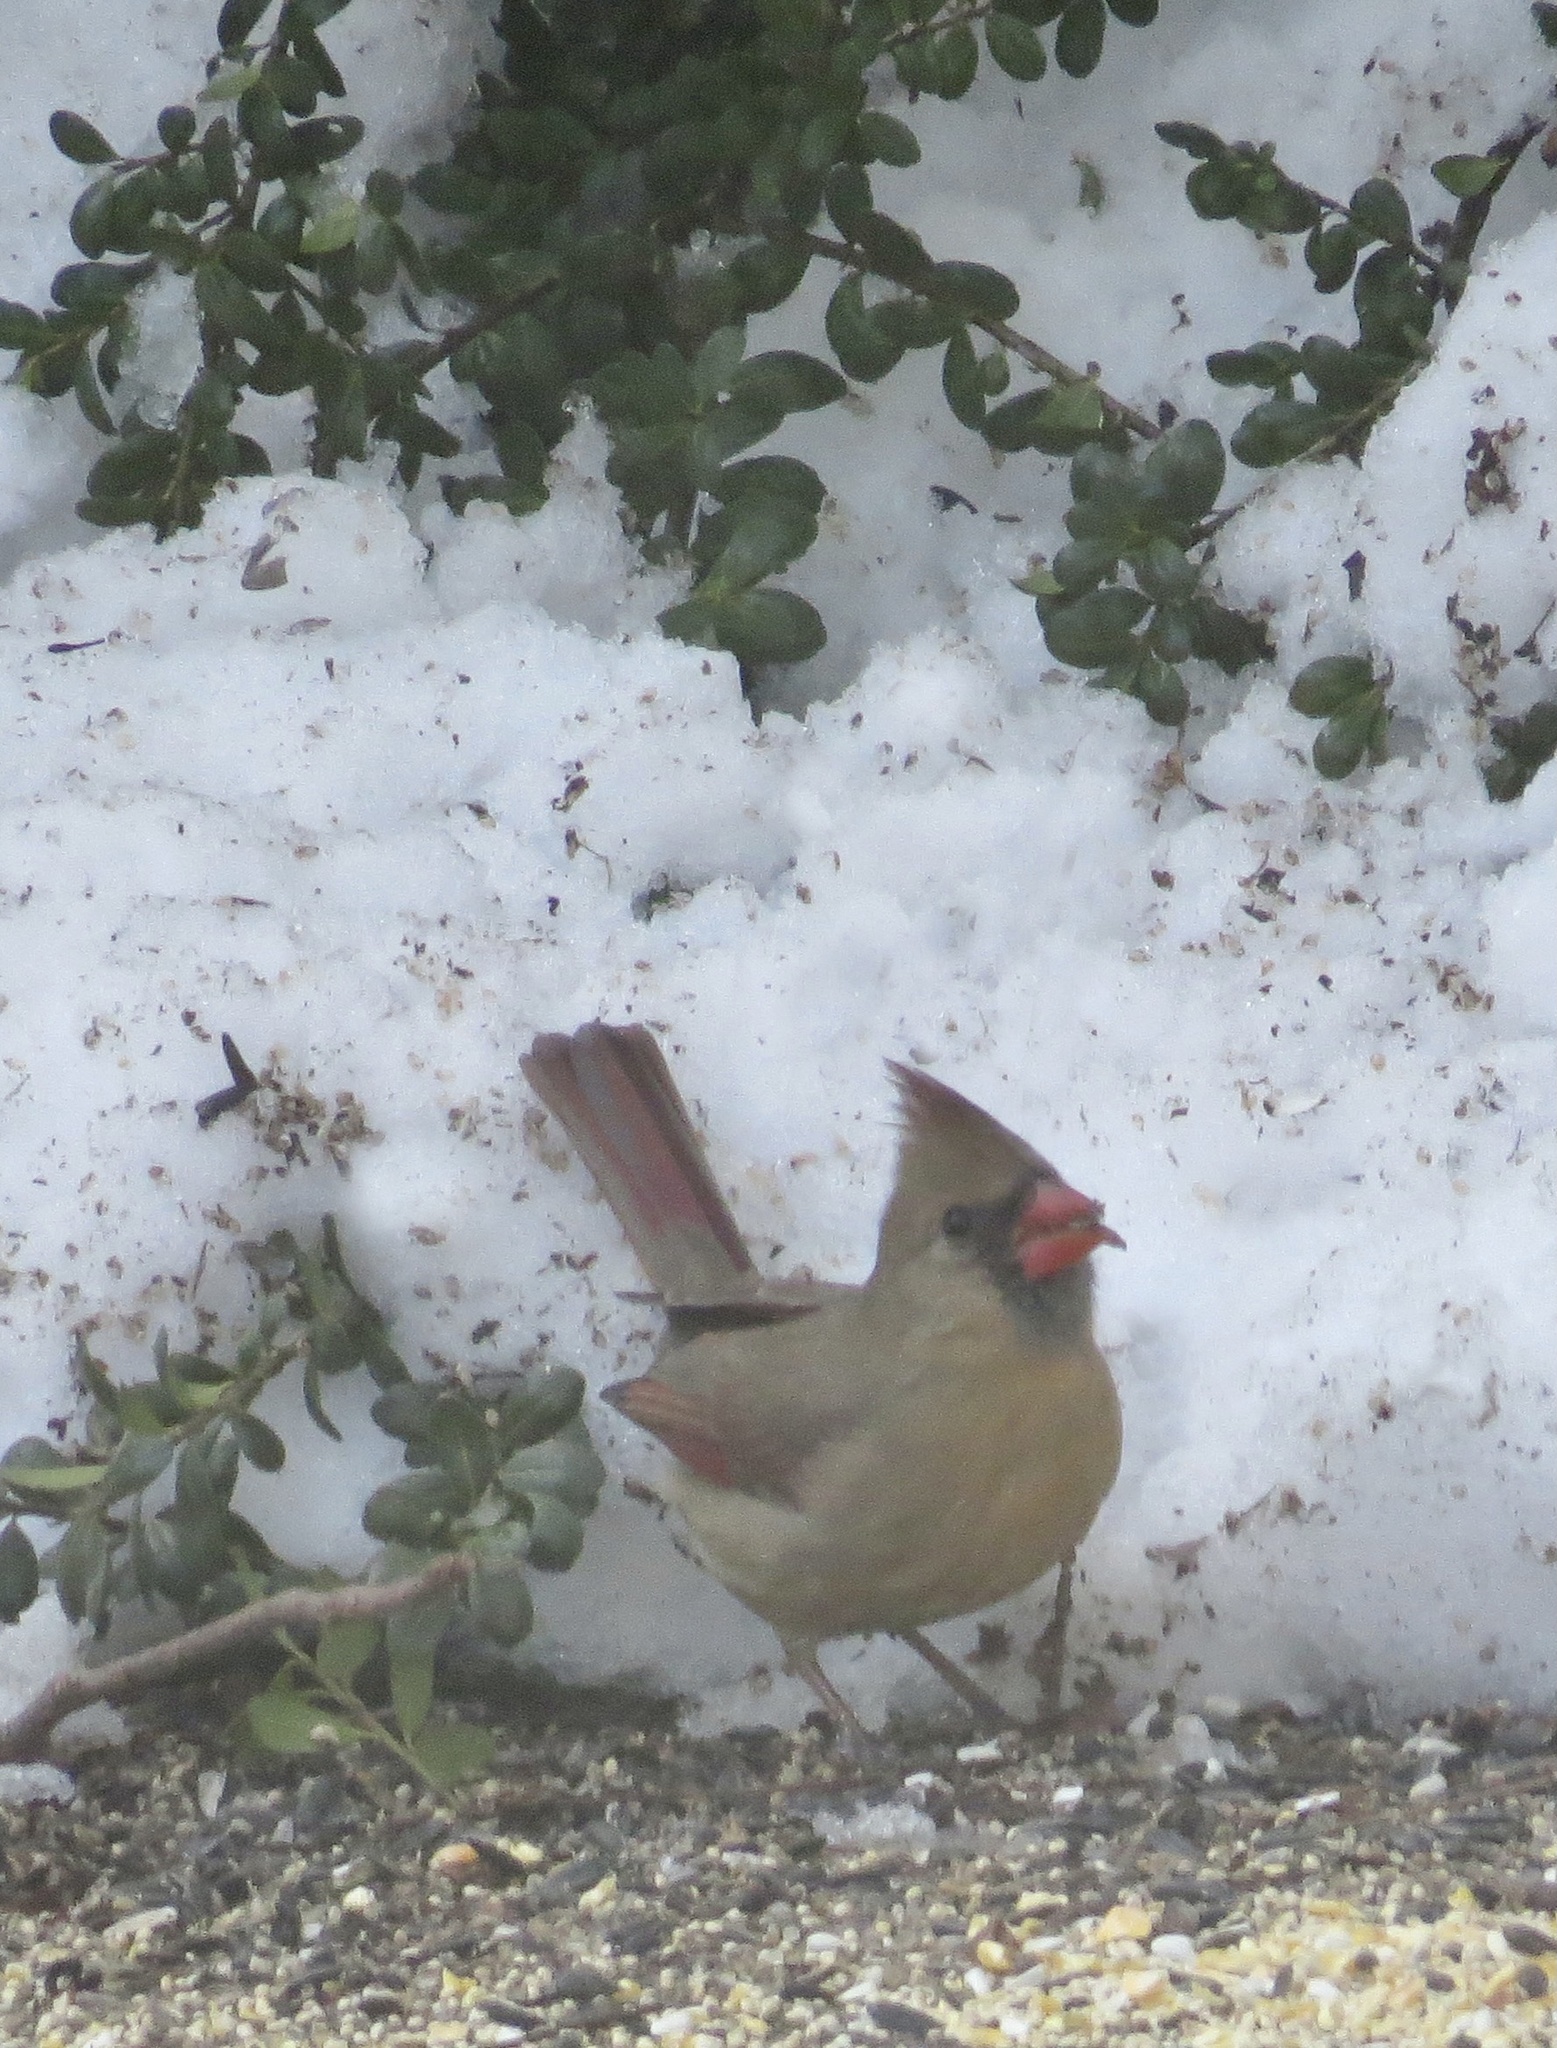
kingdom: Animalia
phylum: Chordata
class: Aves
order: Passeriformes
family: Cardinalidae
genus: Cardinalis
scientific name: Cardinalis cardinalis
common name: Northern cardinal
